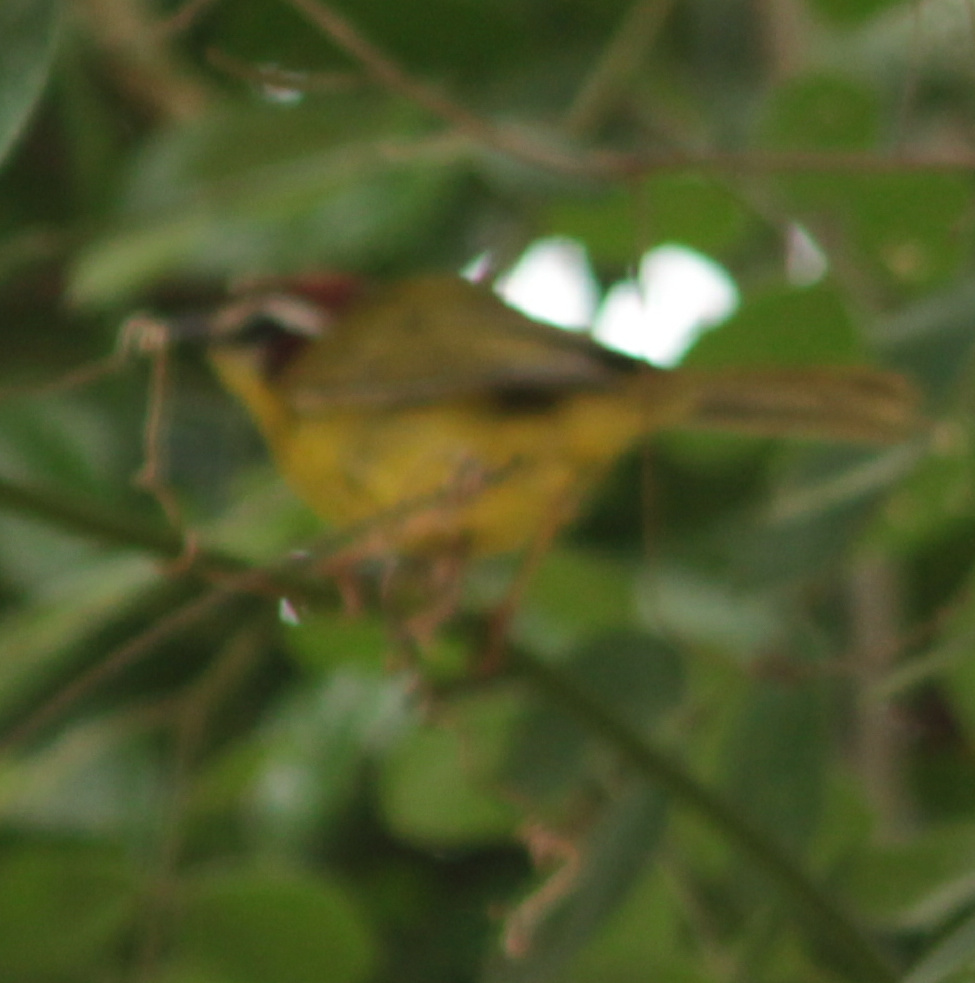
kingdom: Animalia
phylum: Chordata
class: Aves
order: Passeriformes
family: Parulidae
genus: Basileuterus
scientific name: Basileuterus rufifrons
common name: Rufous-capped warbler
